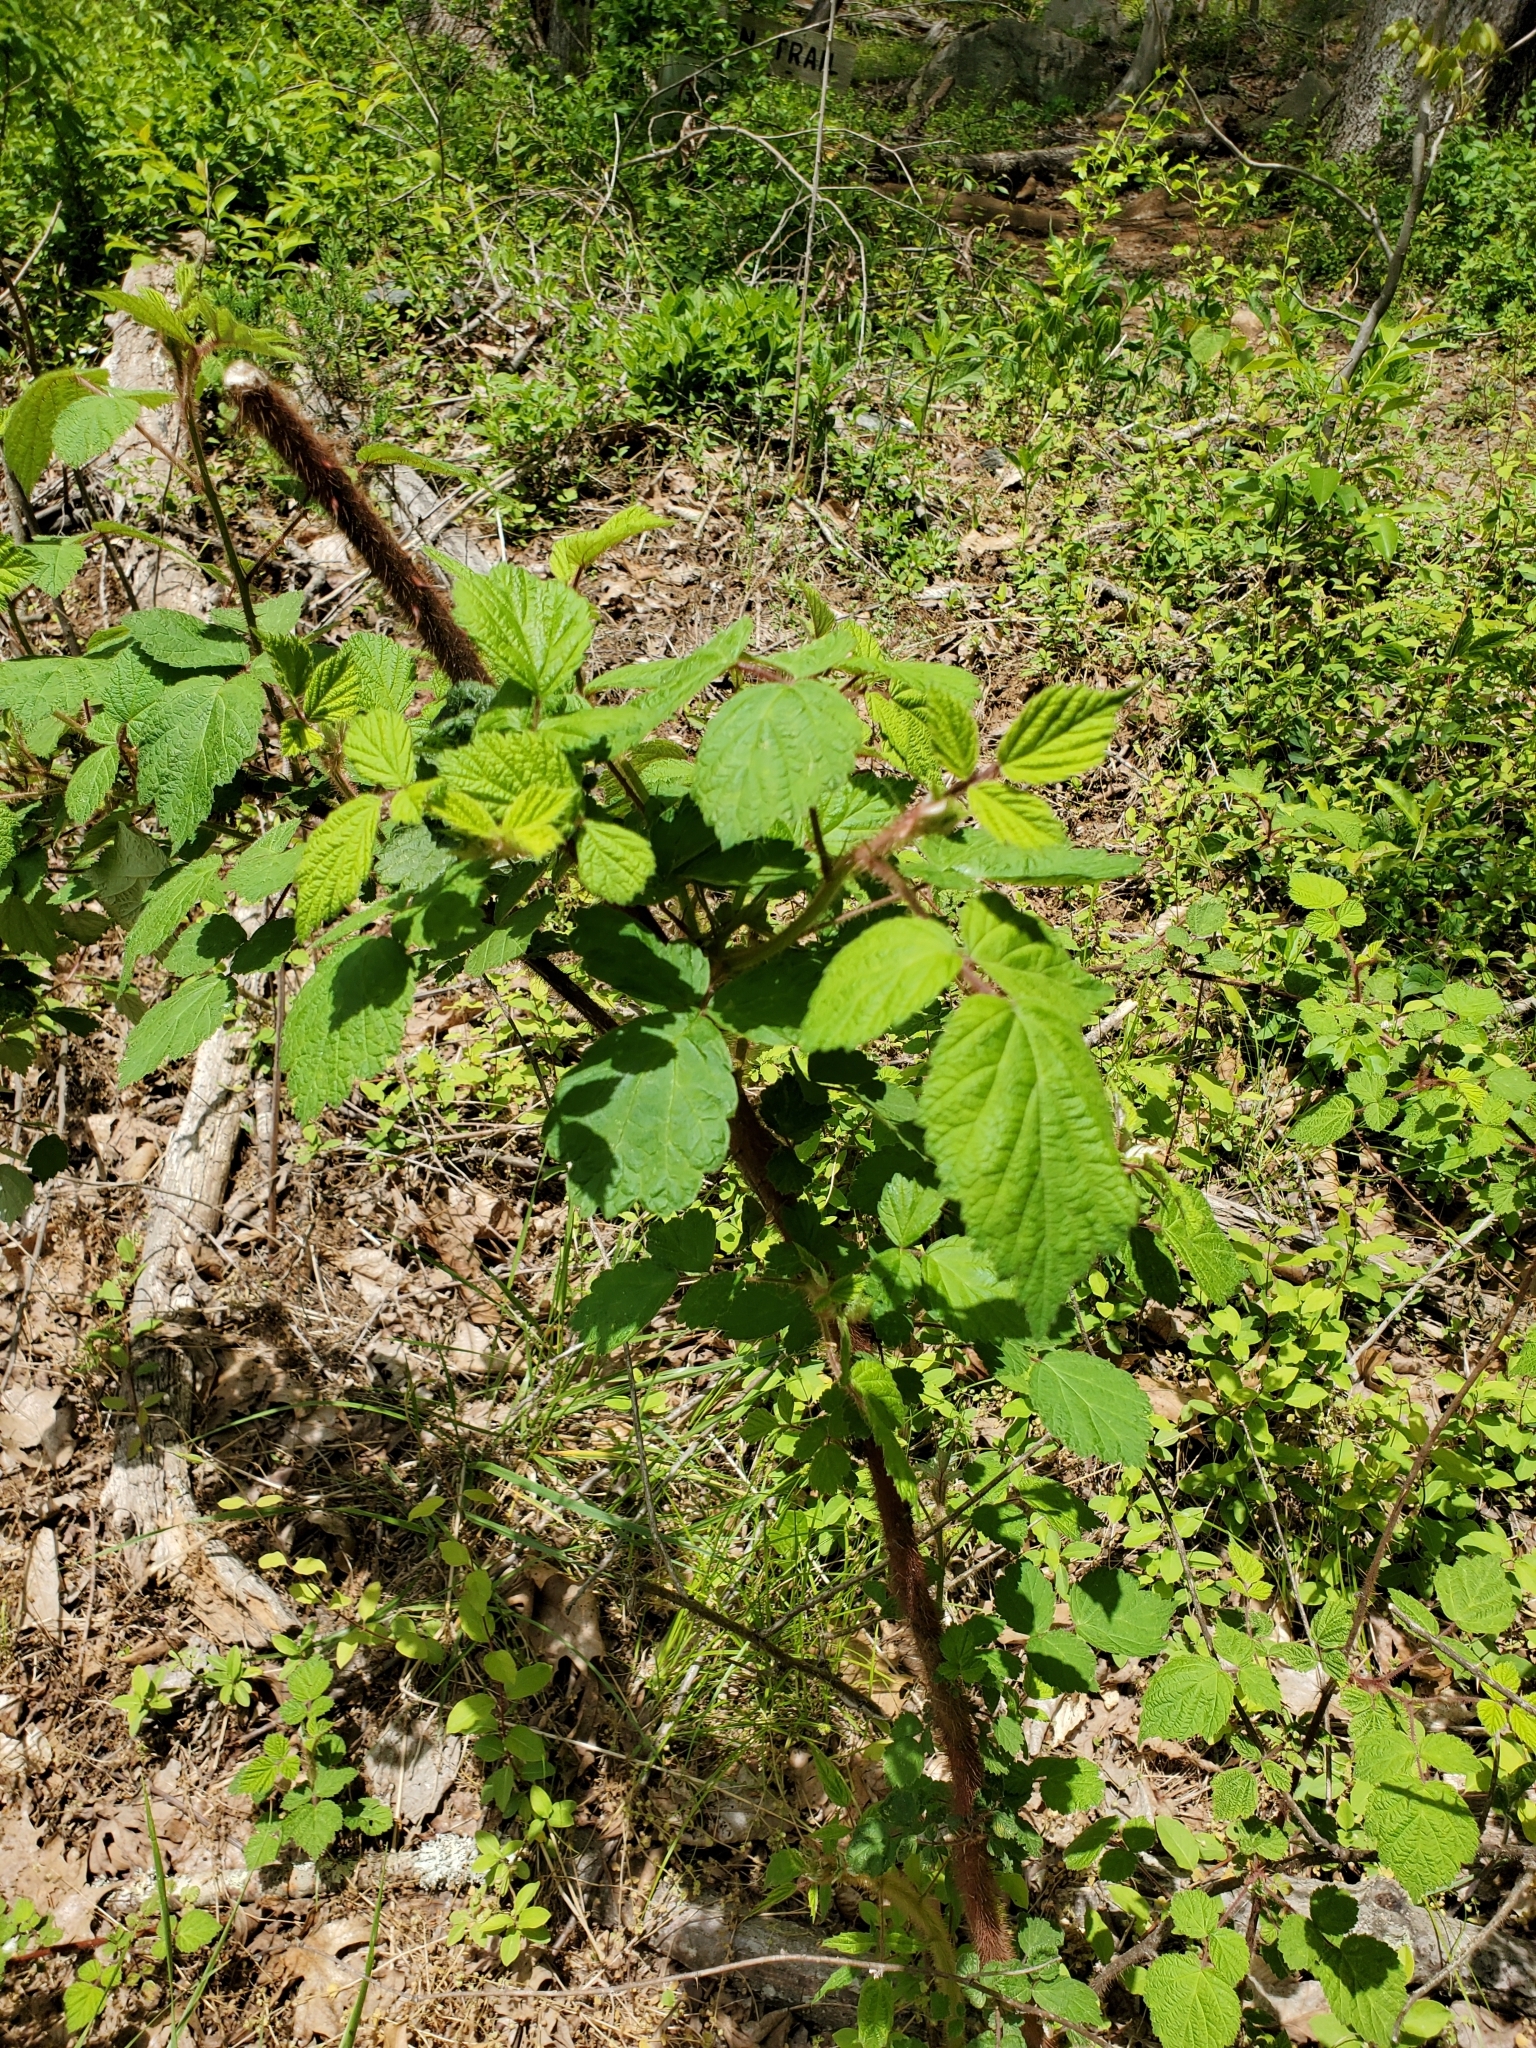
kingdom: Plantae
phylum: Tracheophyta
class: Magnoliopsida
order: Rosales
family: Rosaceae
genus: Rubus
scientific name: Rubus phoenicolasius
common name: Japanese wineberry
